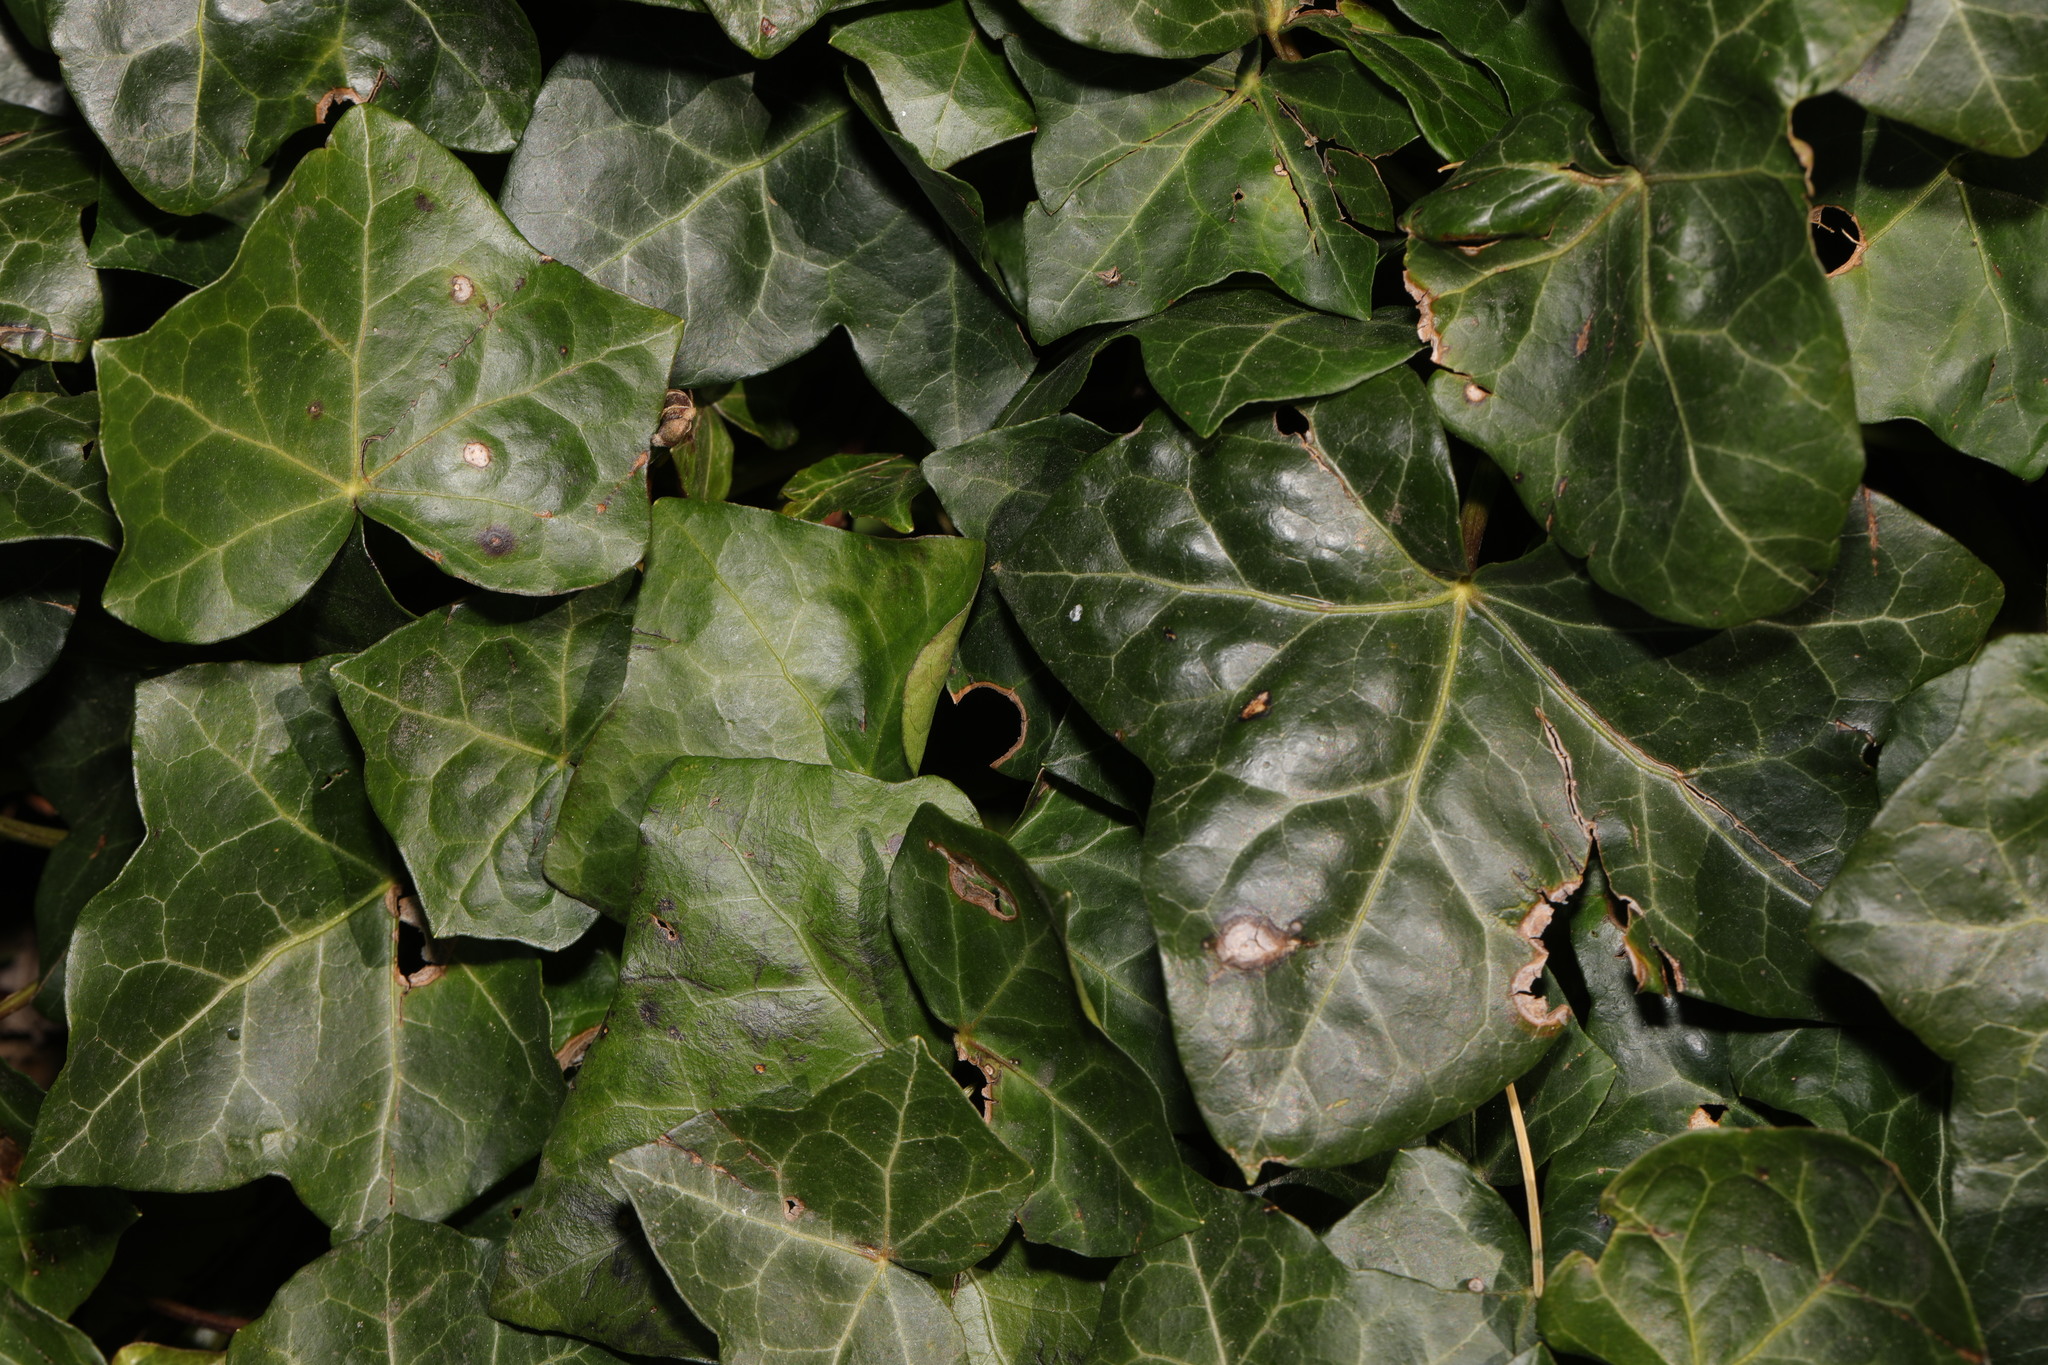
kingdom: Plantae
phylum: Tracheophyta
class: Magnoliopsida
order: Apiales
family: Araliaceae
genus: Hedera
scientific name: Hedera helix
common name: Ivy
